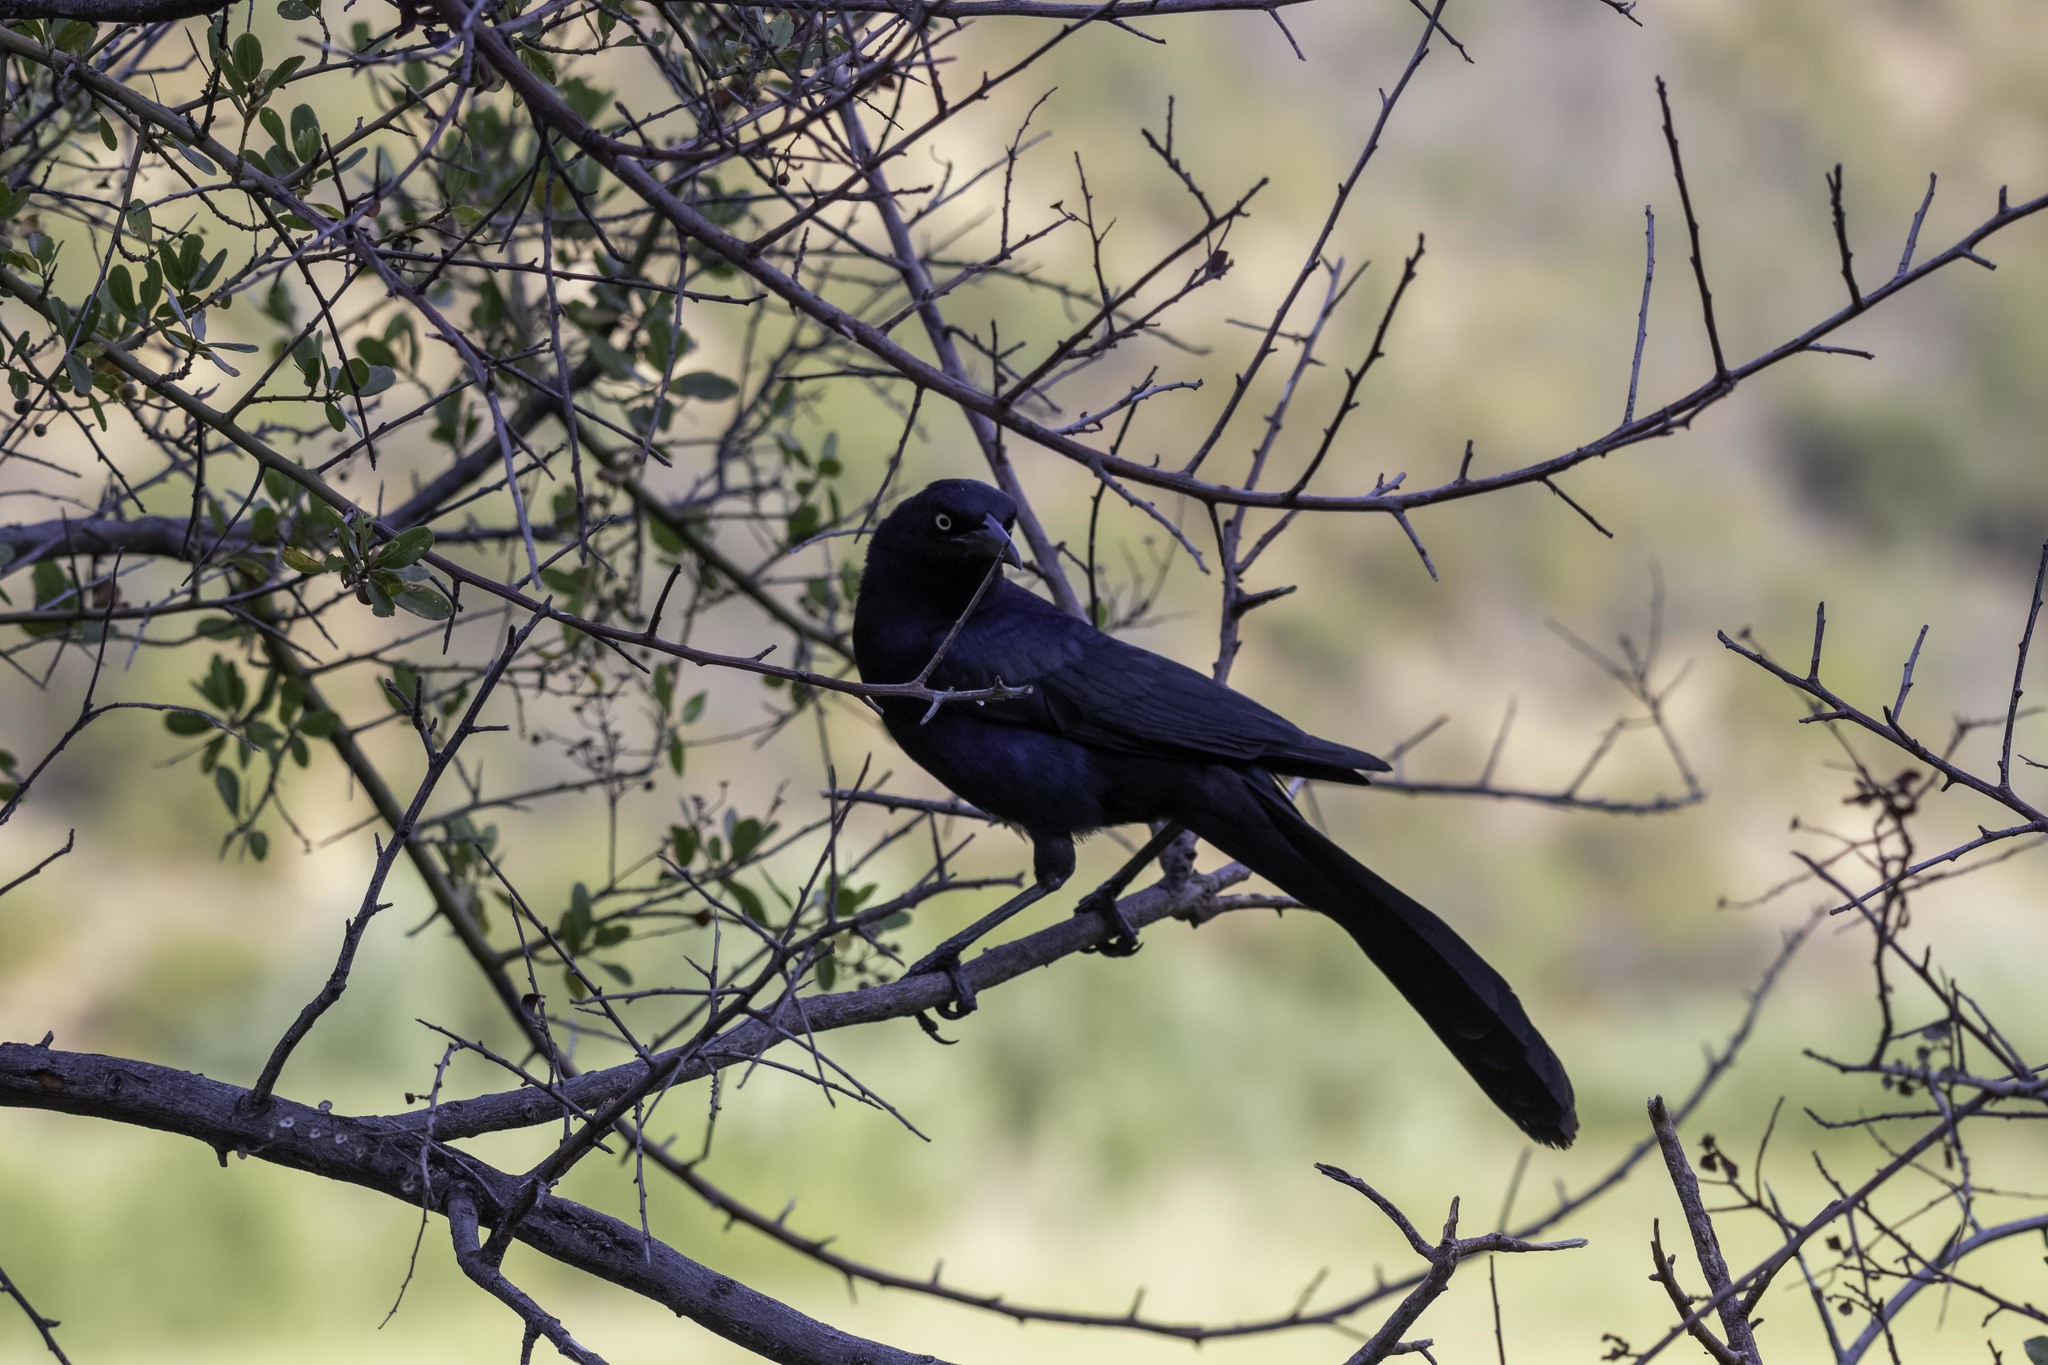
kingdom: Animalia
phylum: Chordata
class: Aves
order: Passeriformes
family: Icteridae
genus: Quiscalus
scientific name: Quiscalus mexicanus
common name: Great-tailed grackle
